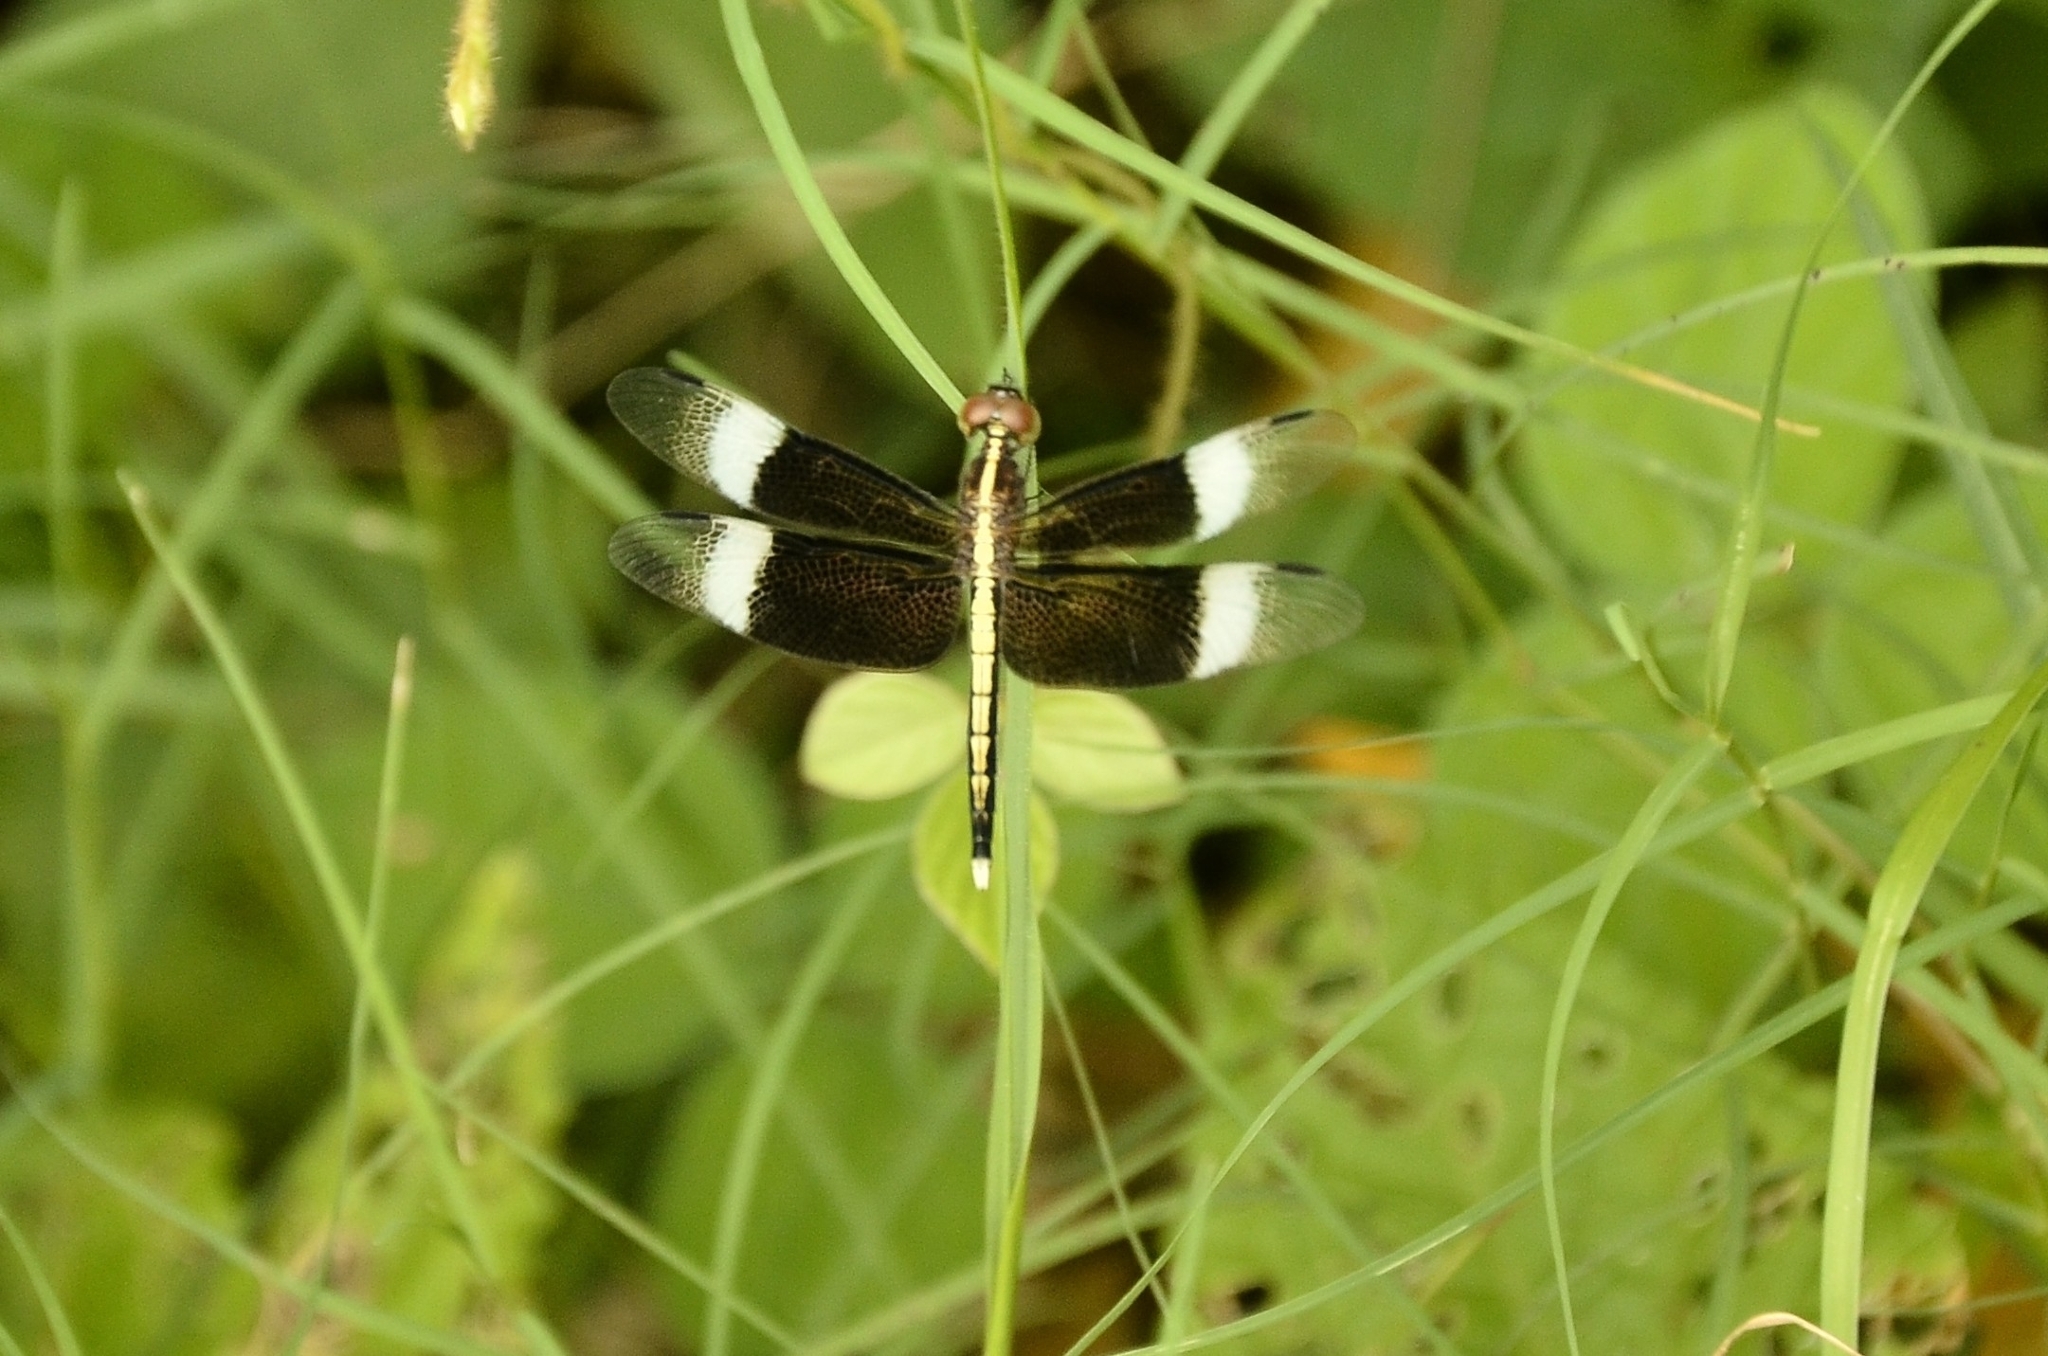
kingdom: Animalia
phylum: Arthropoda
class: Insecta
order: Odonata
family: Libellulidae
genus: Neurothemis
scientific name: Neurothemis tullia
